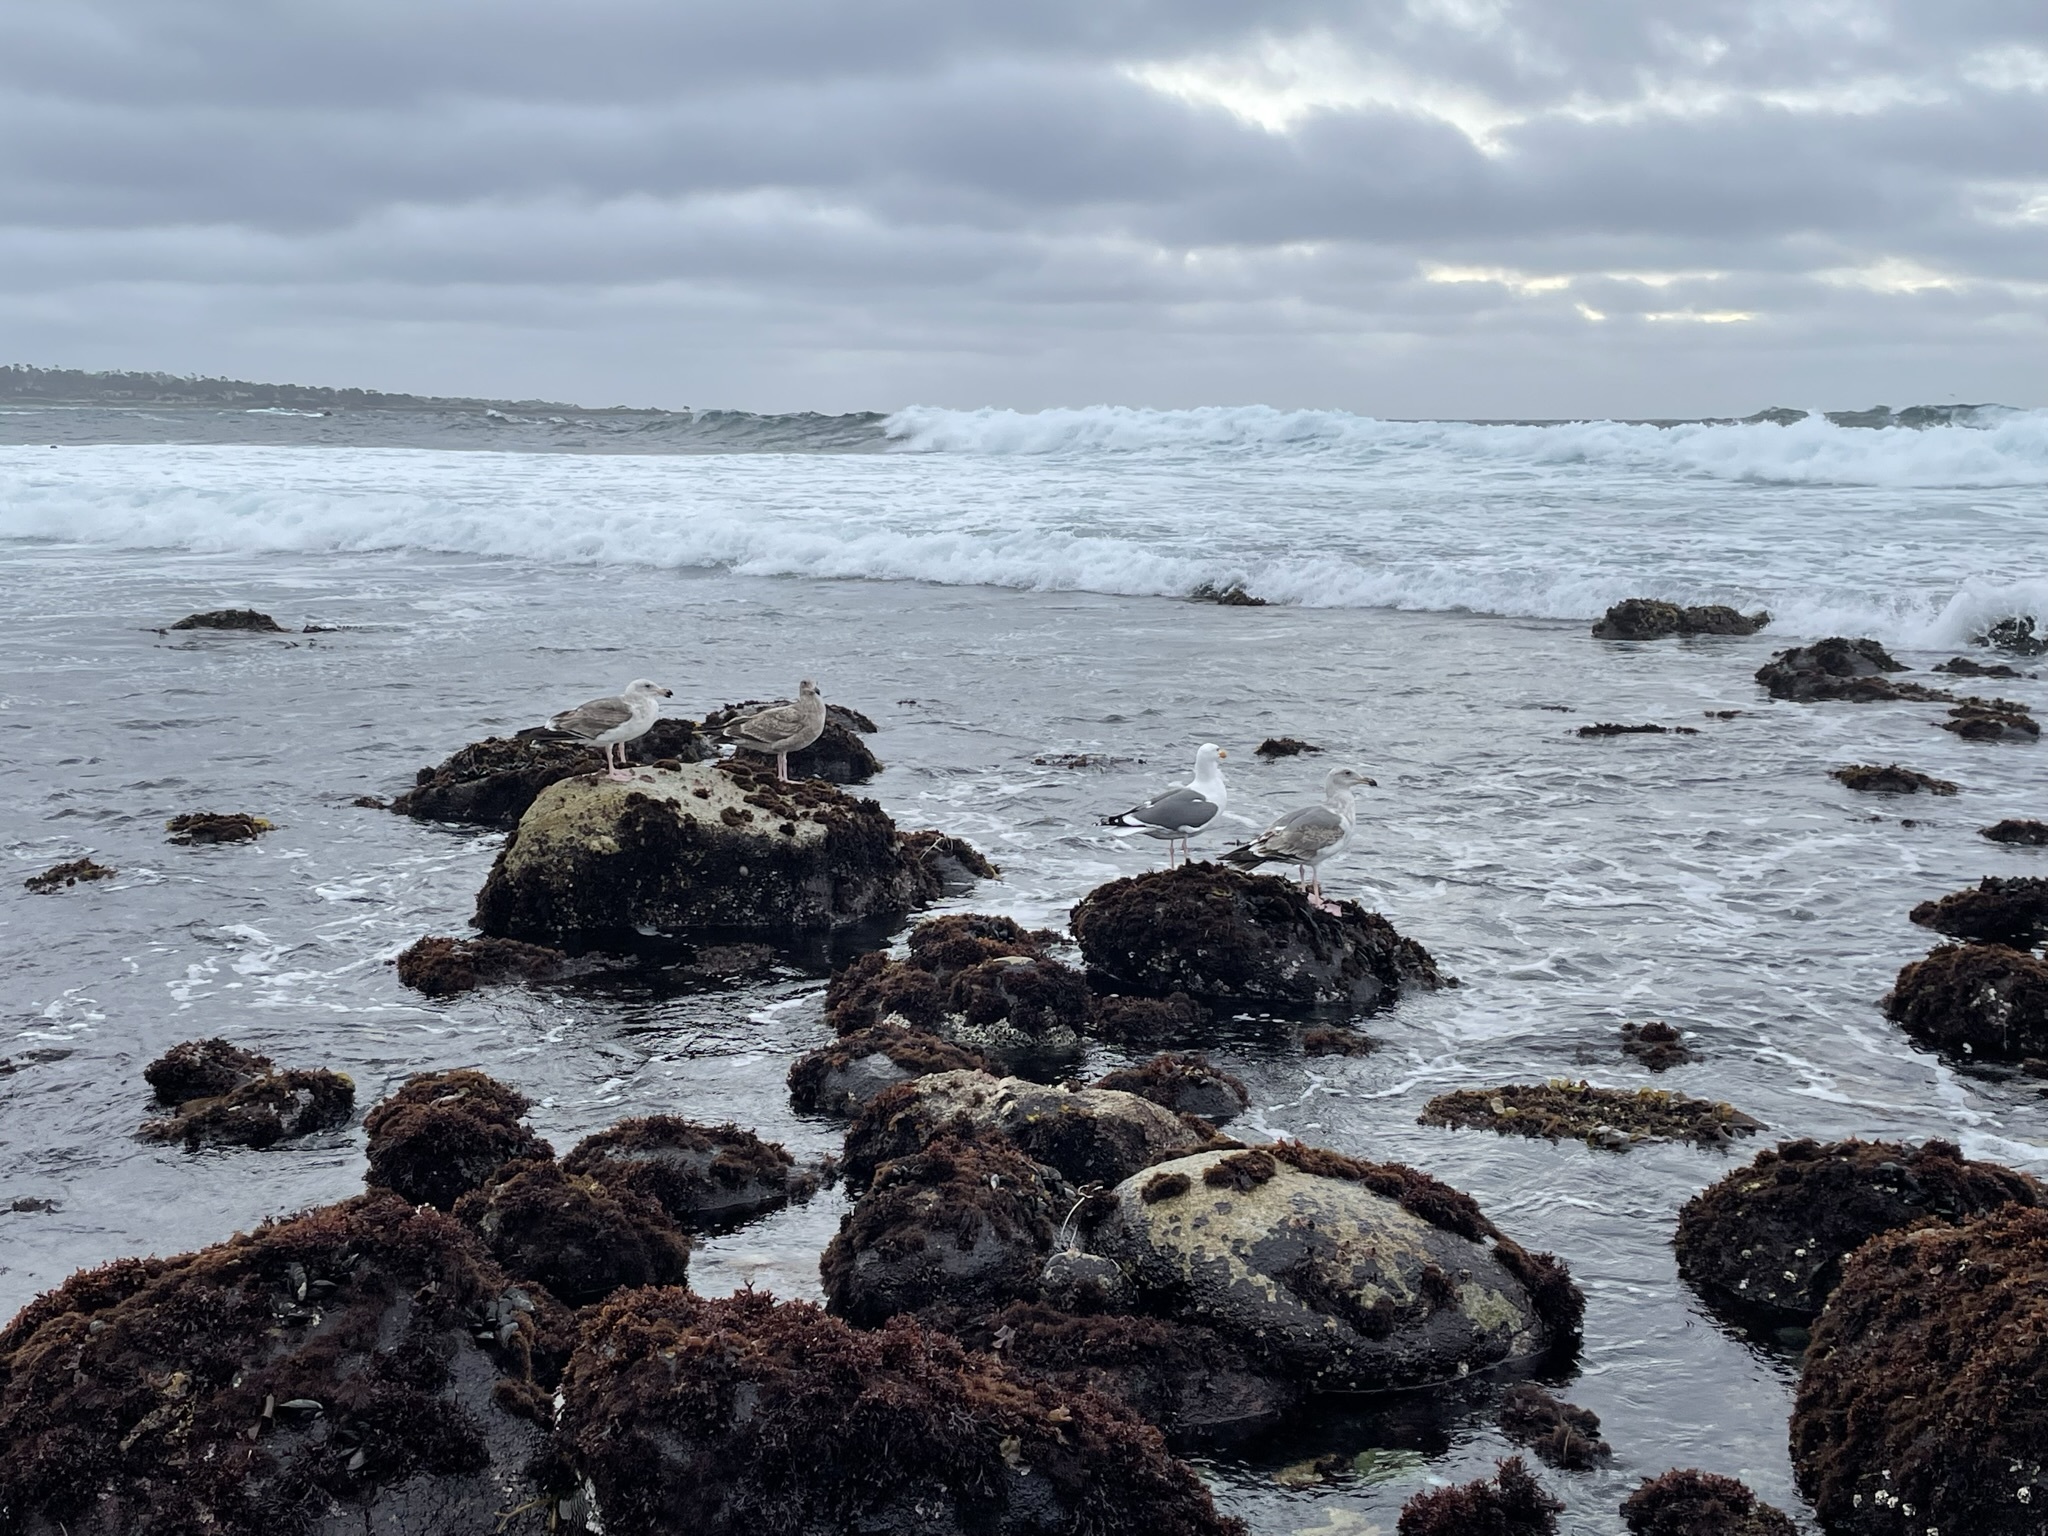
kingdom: Animalia
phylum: Chordata
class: Aves
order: Charadriiformes
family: Laridae
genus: Larus
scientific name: Larus occidentalis
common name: Western gull
